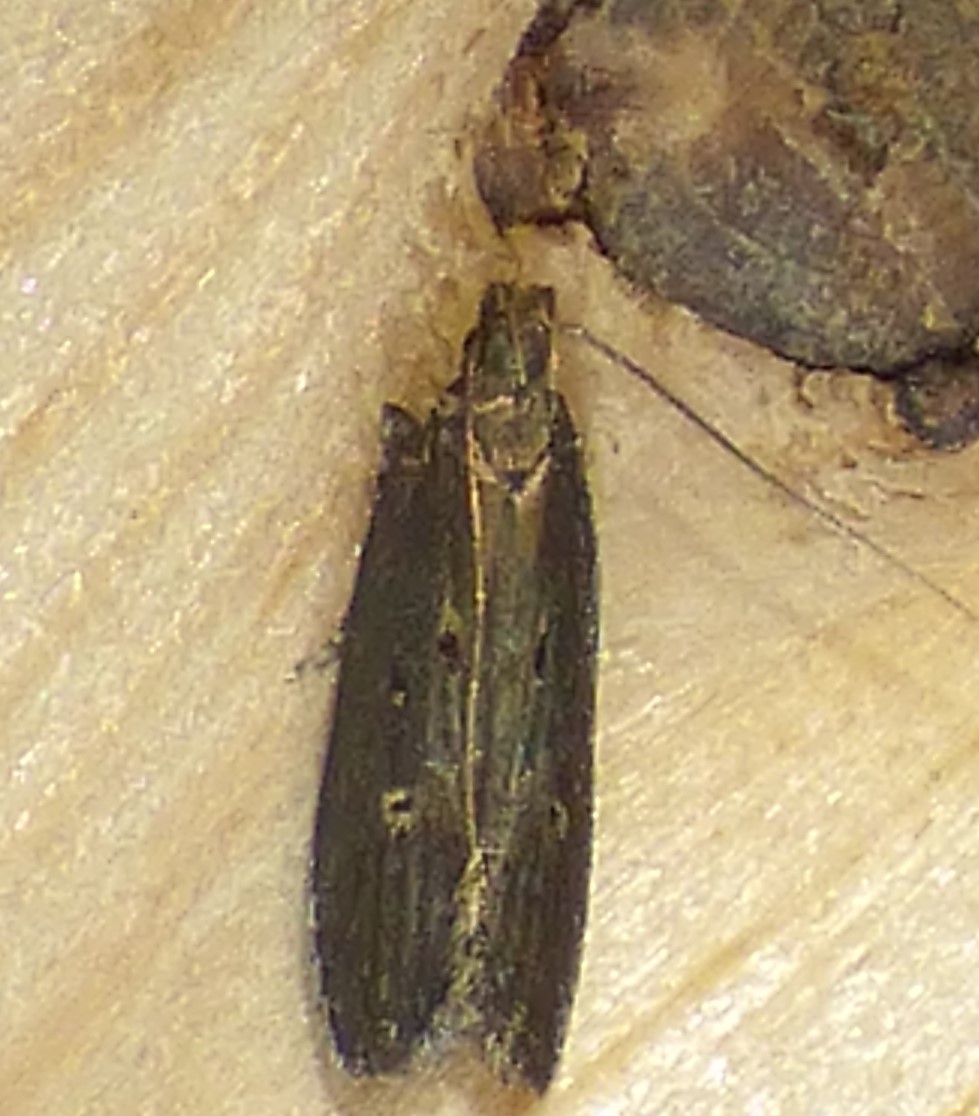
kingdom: Animalia
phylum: Arthropoda
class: Insecta
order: Lepidoptera
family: Gelechiidae
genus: Chionodes
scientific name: Chionodes discoocellella
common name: Eye-ringed chionodes moth
